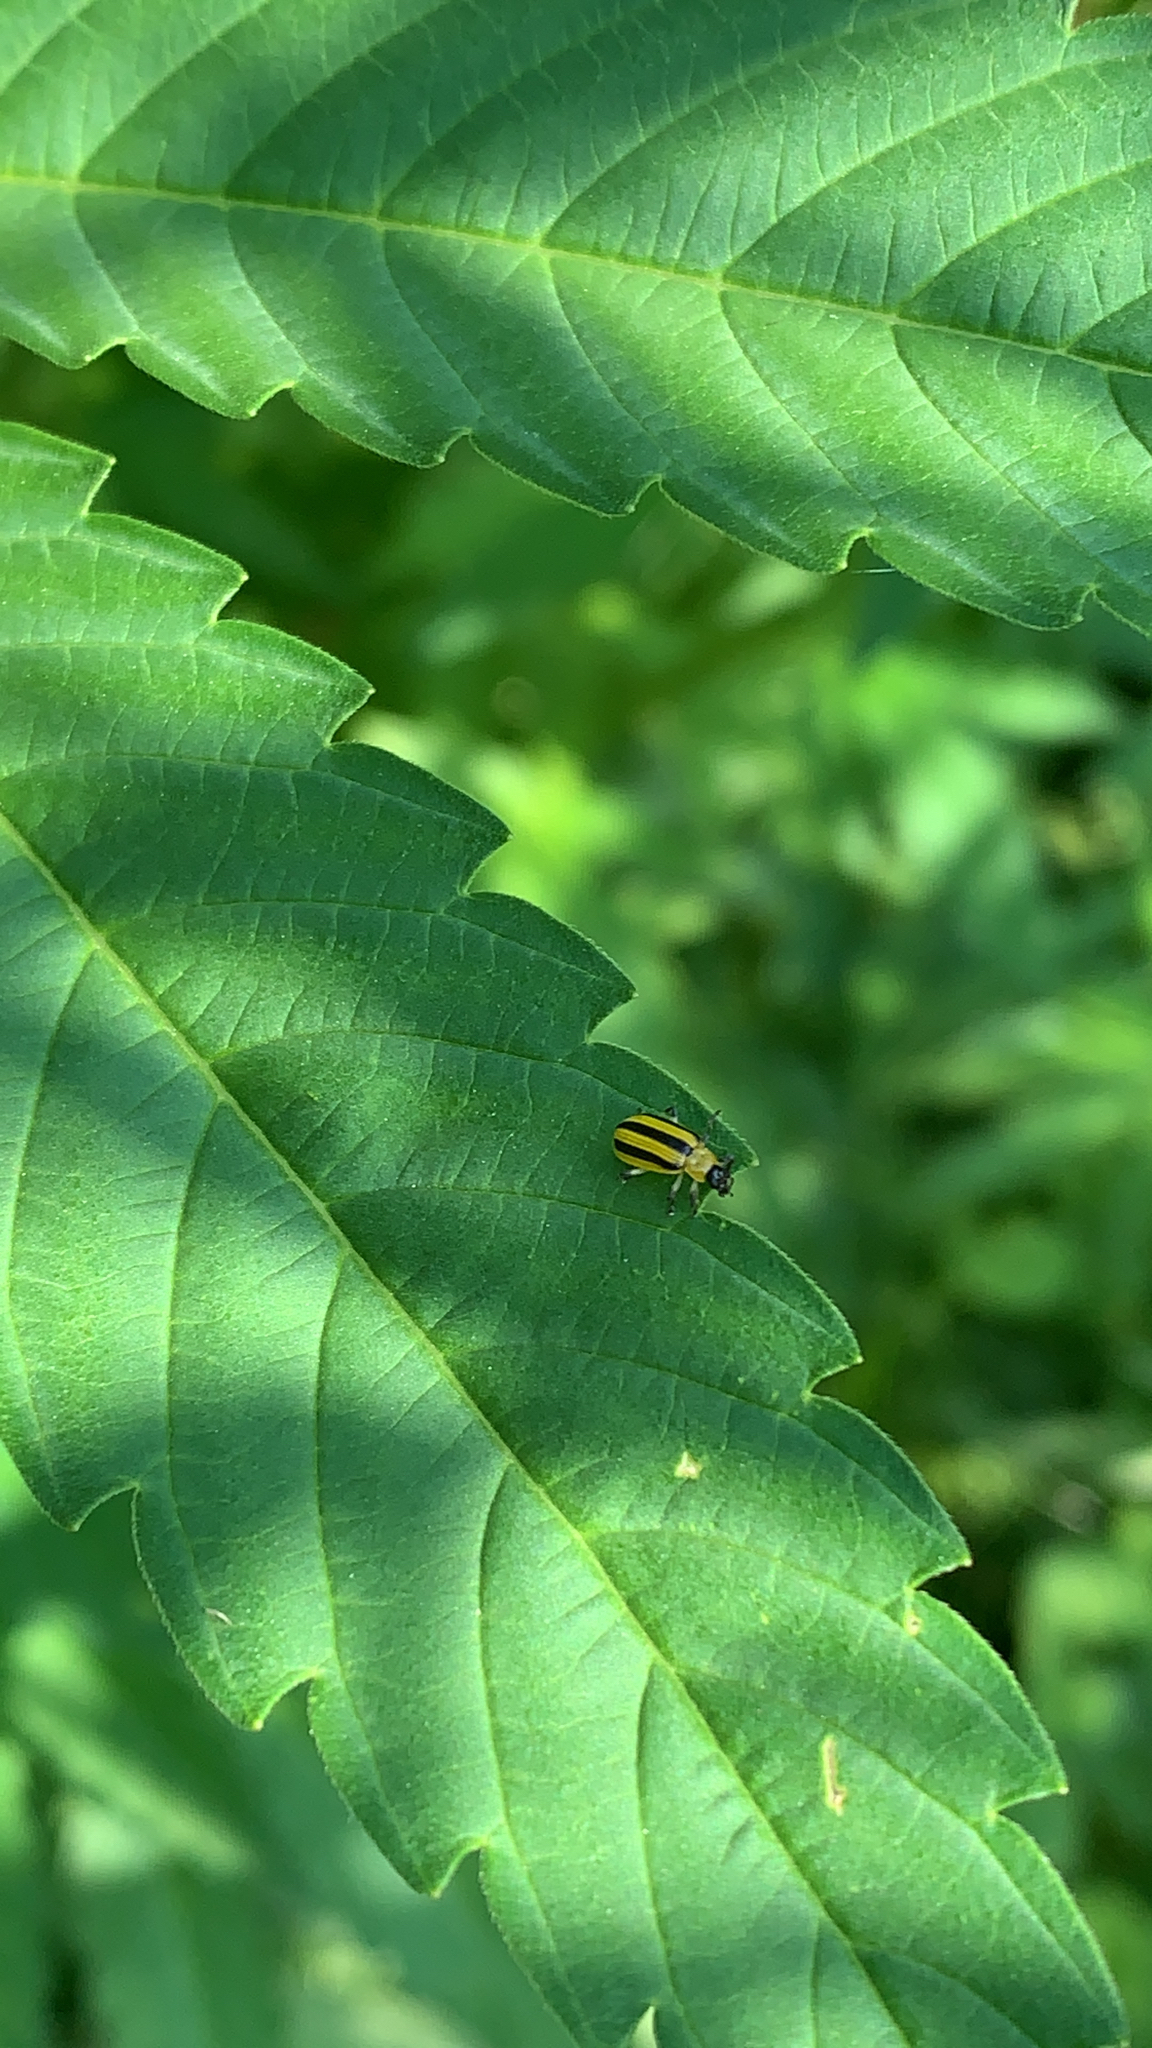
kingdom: Animalia
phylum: Arthropoda
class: Insecta
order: Coleoptera
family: Chrysomelidae
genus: Acalymma
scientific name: Acalymma vittatum
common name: Striped cucumber beetle
